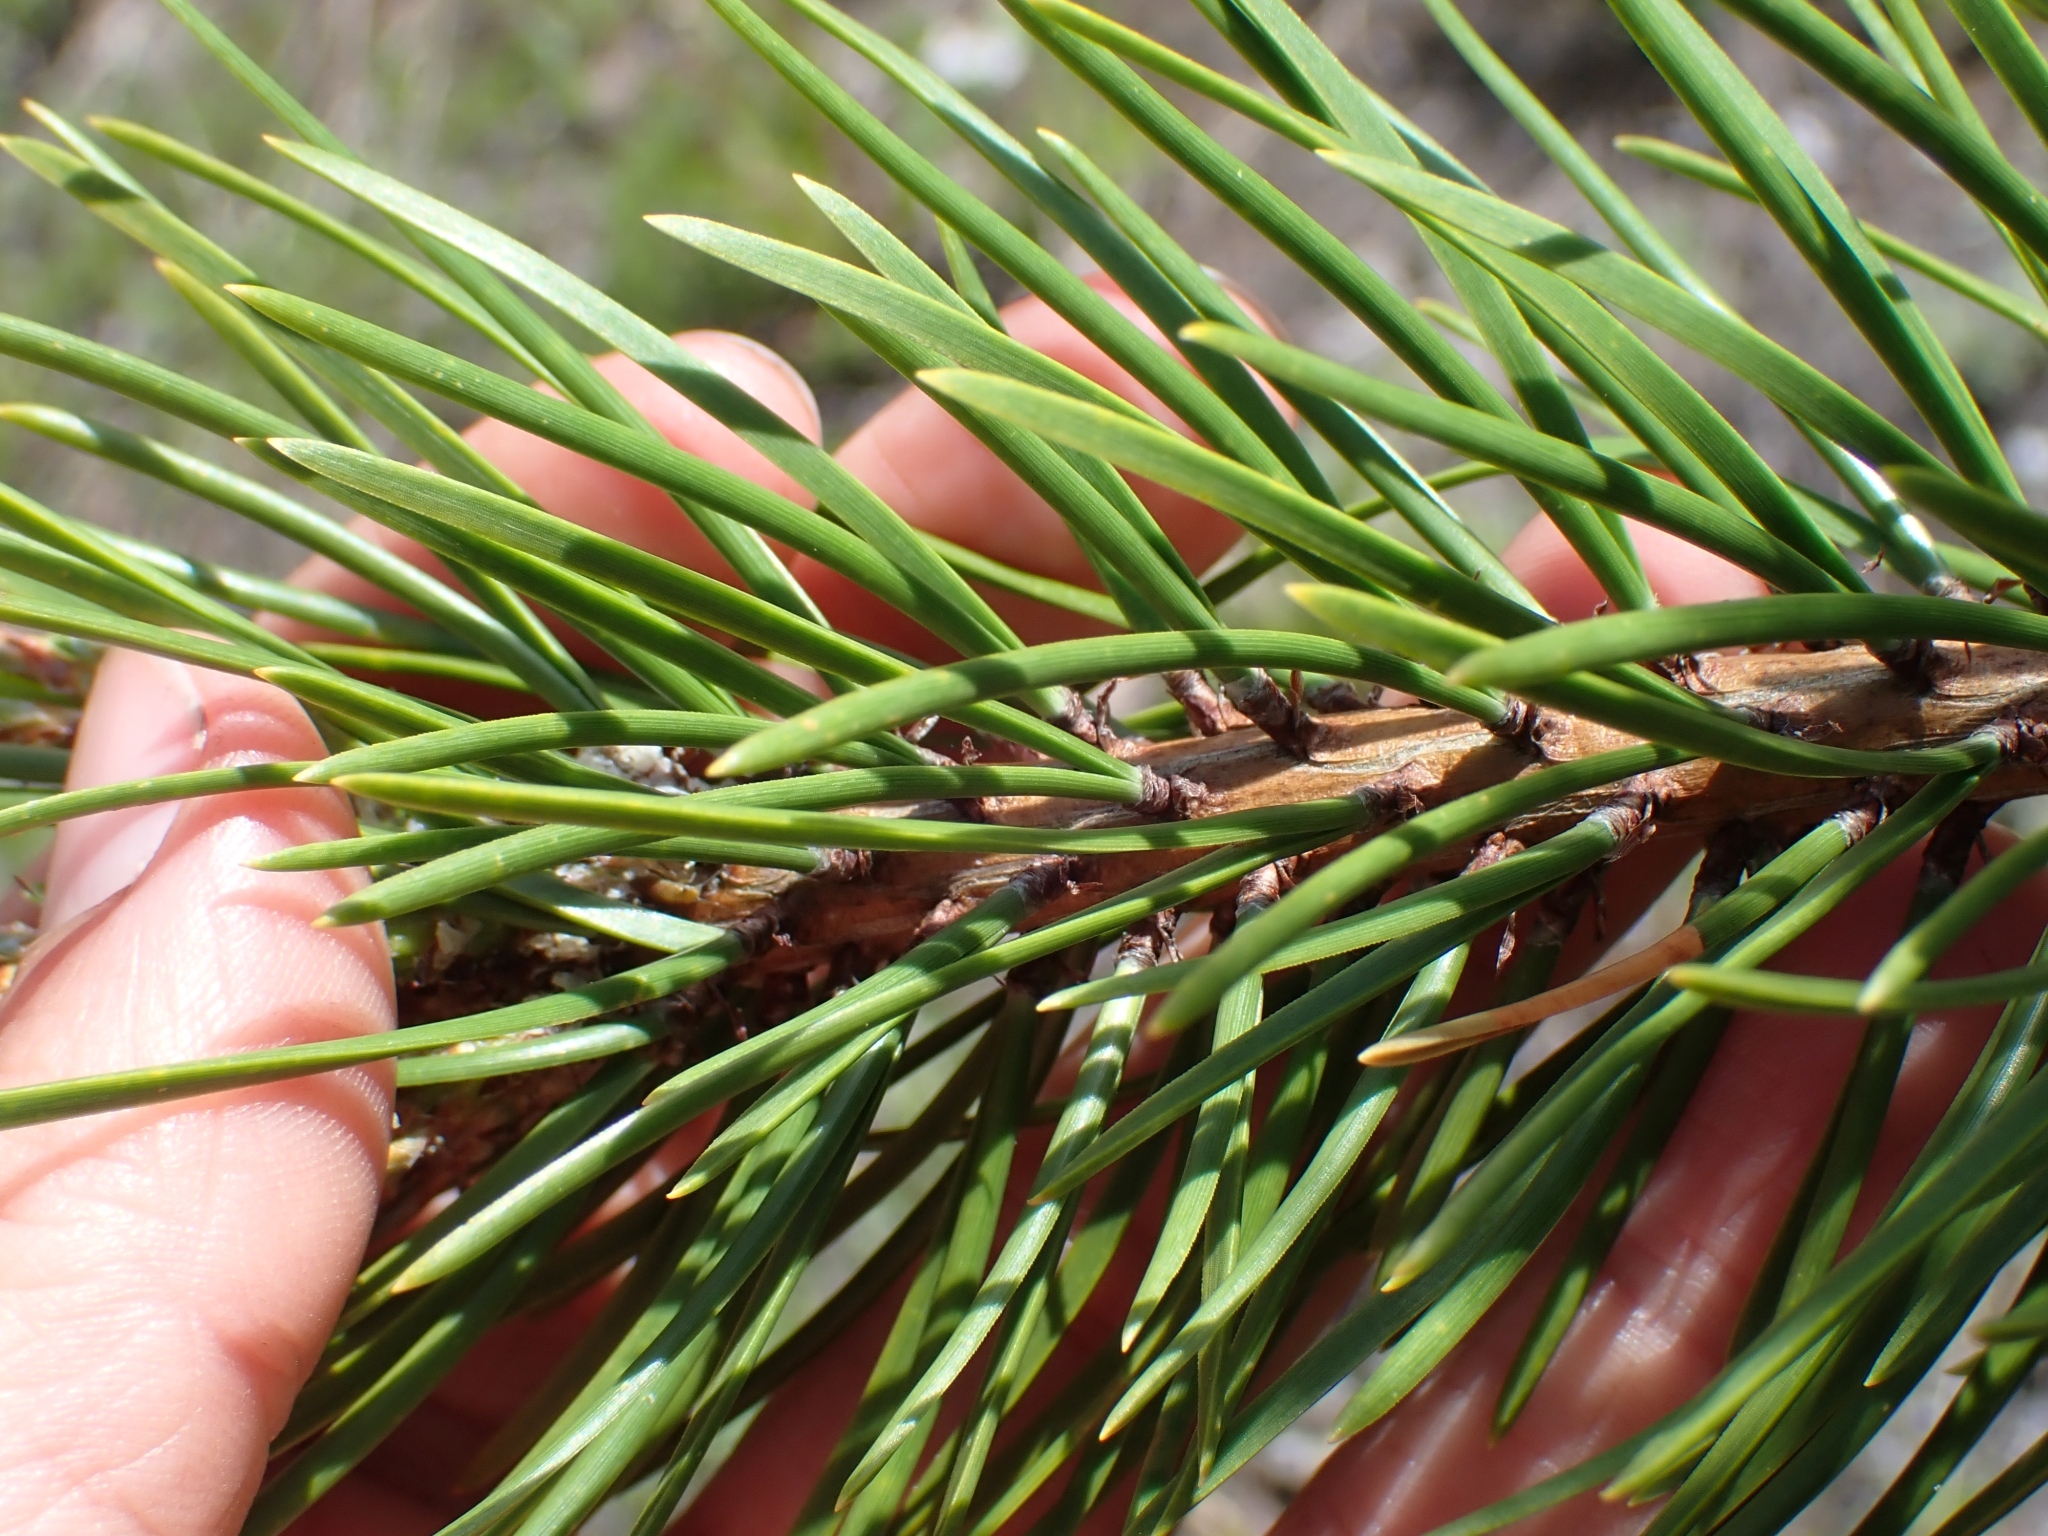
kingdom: Plantae
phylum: Tracheophyta
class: Pinopsida
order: Pinales
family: Pinaceae
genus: Pinus
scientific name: Pinus contorta
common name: Lodgepole pine
